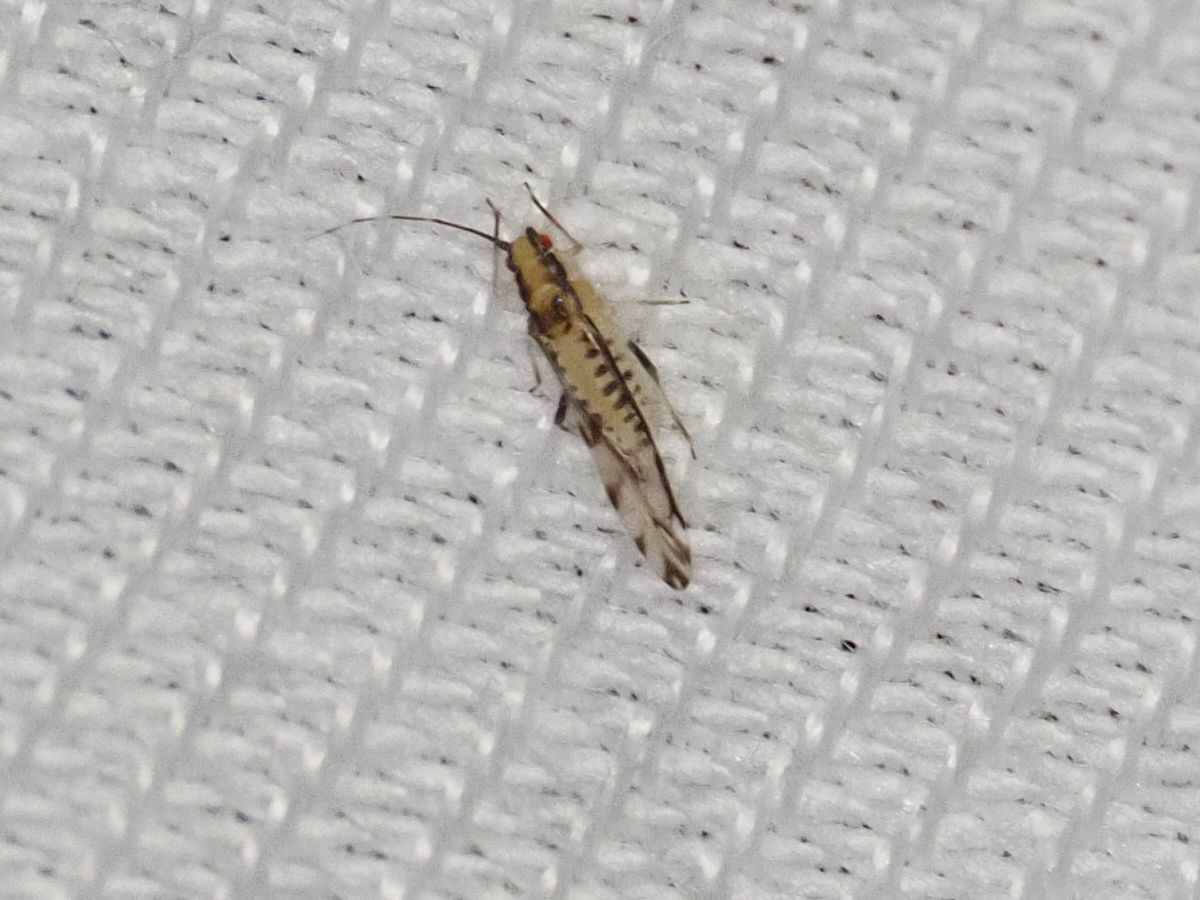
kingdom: Animalia
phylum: Arthropoda
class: Insecta
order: Hemiptera
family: Aphididae
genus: Eucallipterus
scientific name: Eucallipterus tiliae
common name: Aphid
